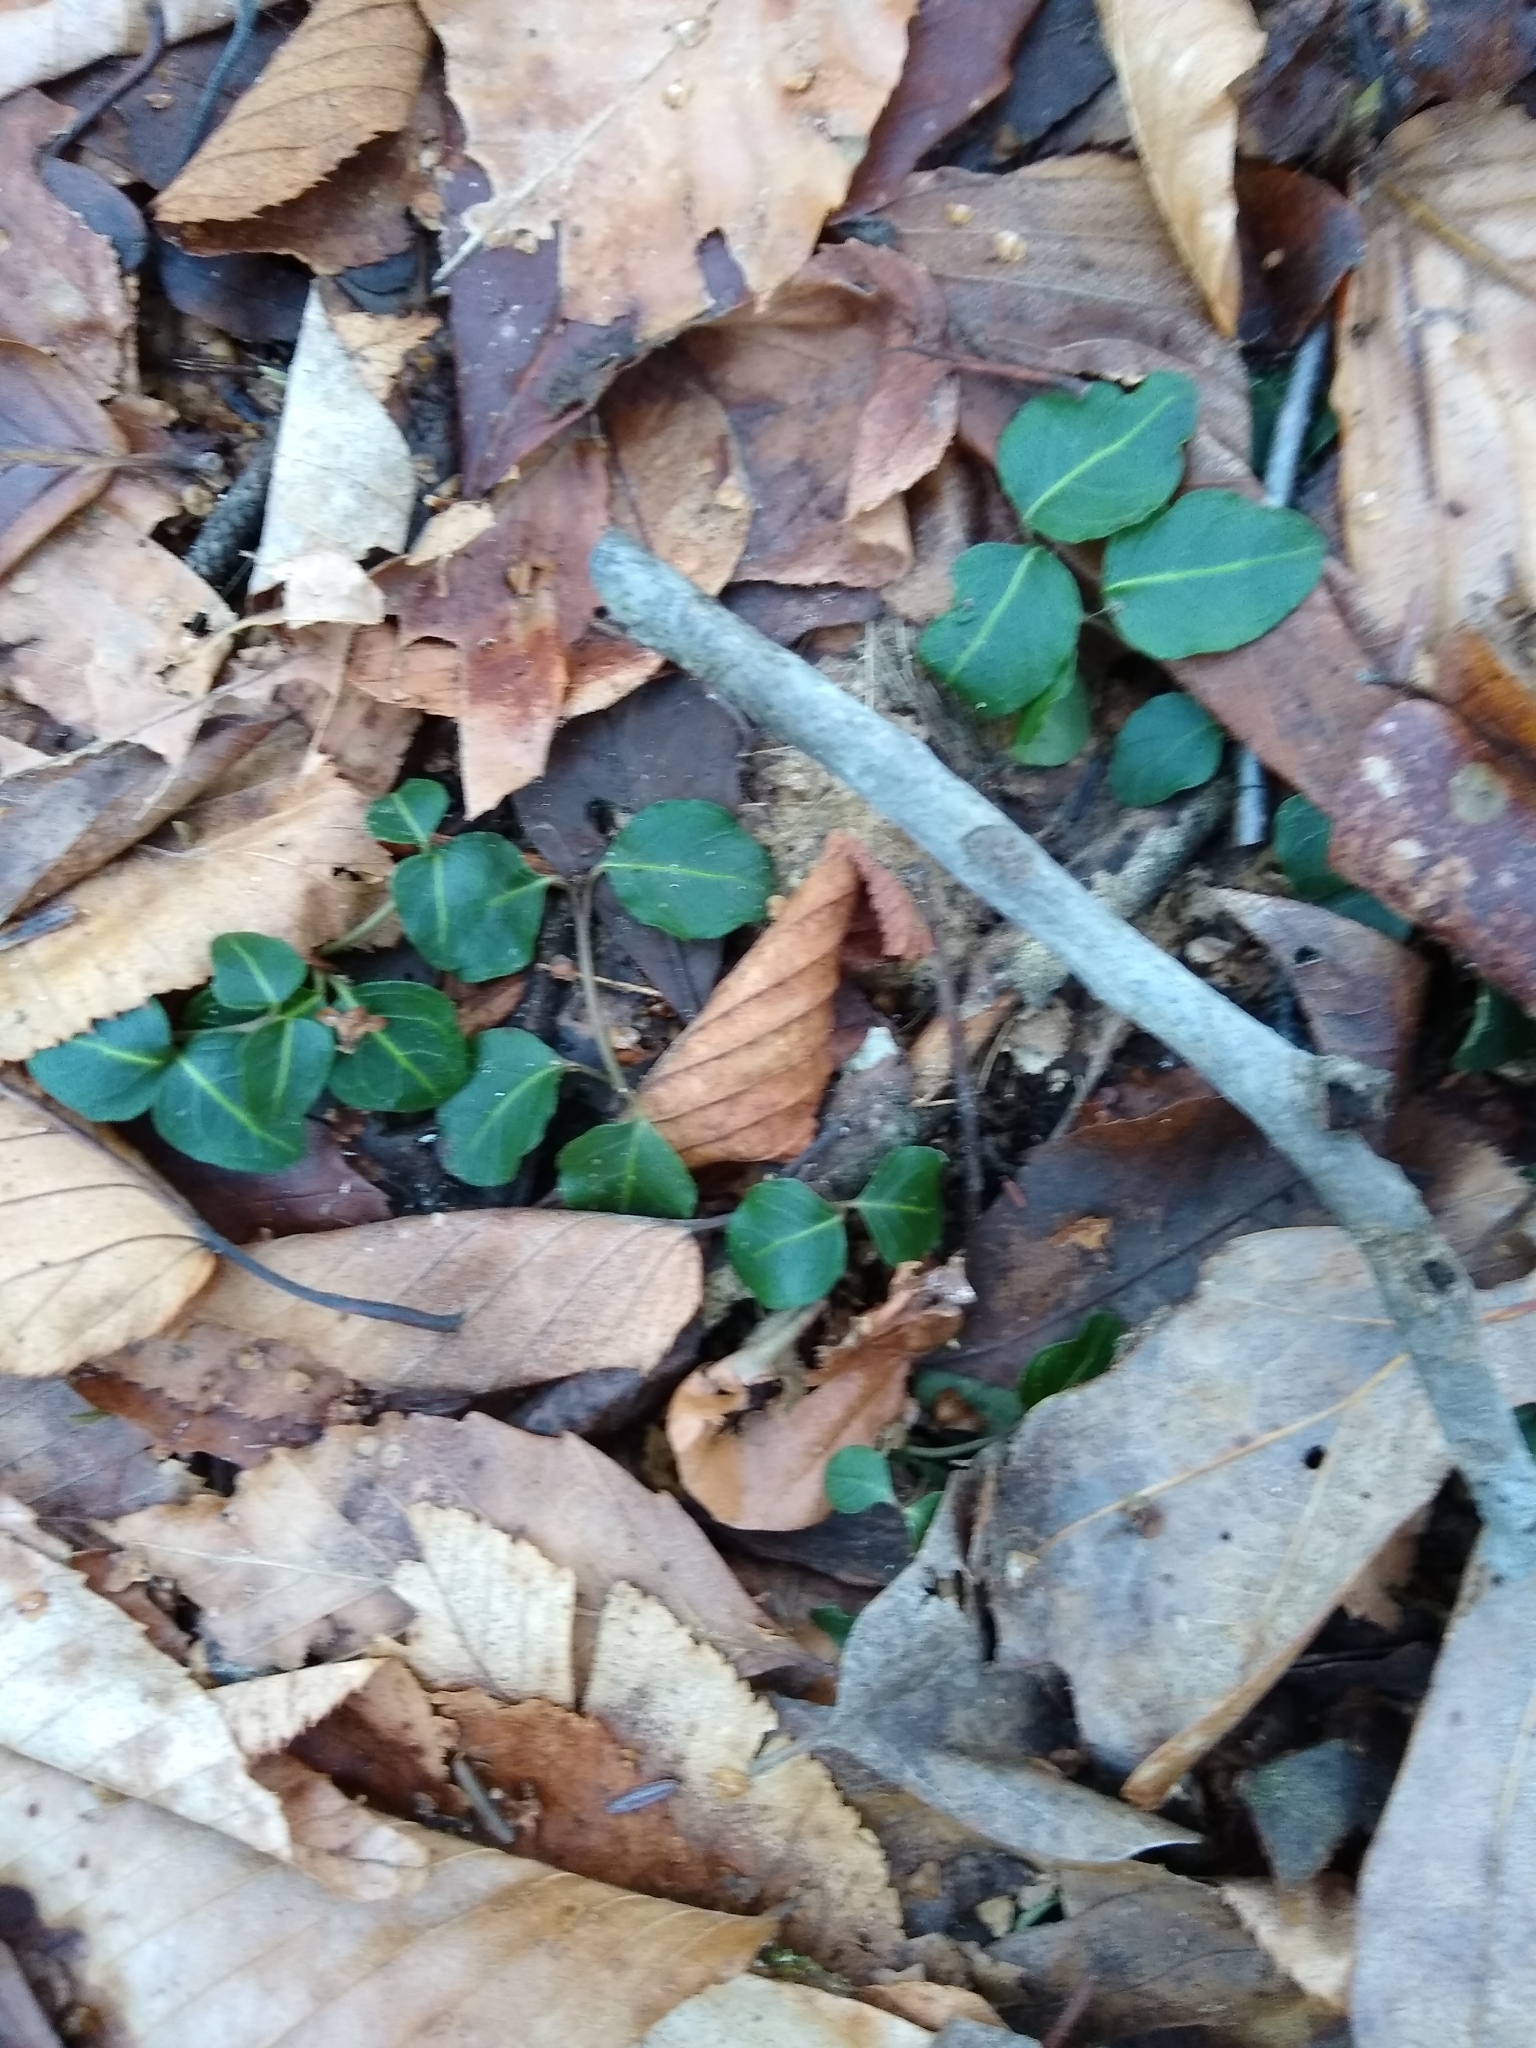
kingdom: Plantae
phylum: Tracheophyta
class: Magnoliopsida
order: Gentianales
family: Rubiaceae
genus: Mitchella
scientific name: Mitchella repens
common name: Partridge-berry
